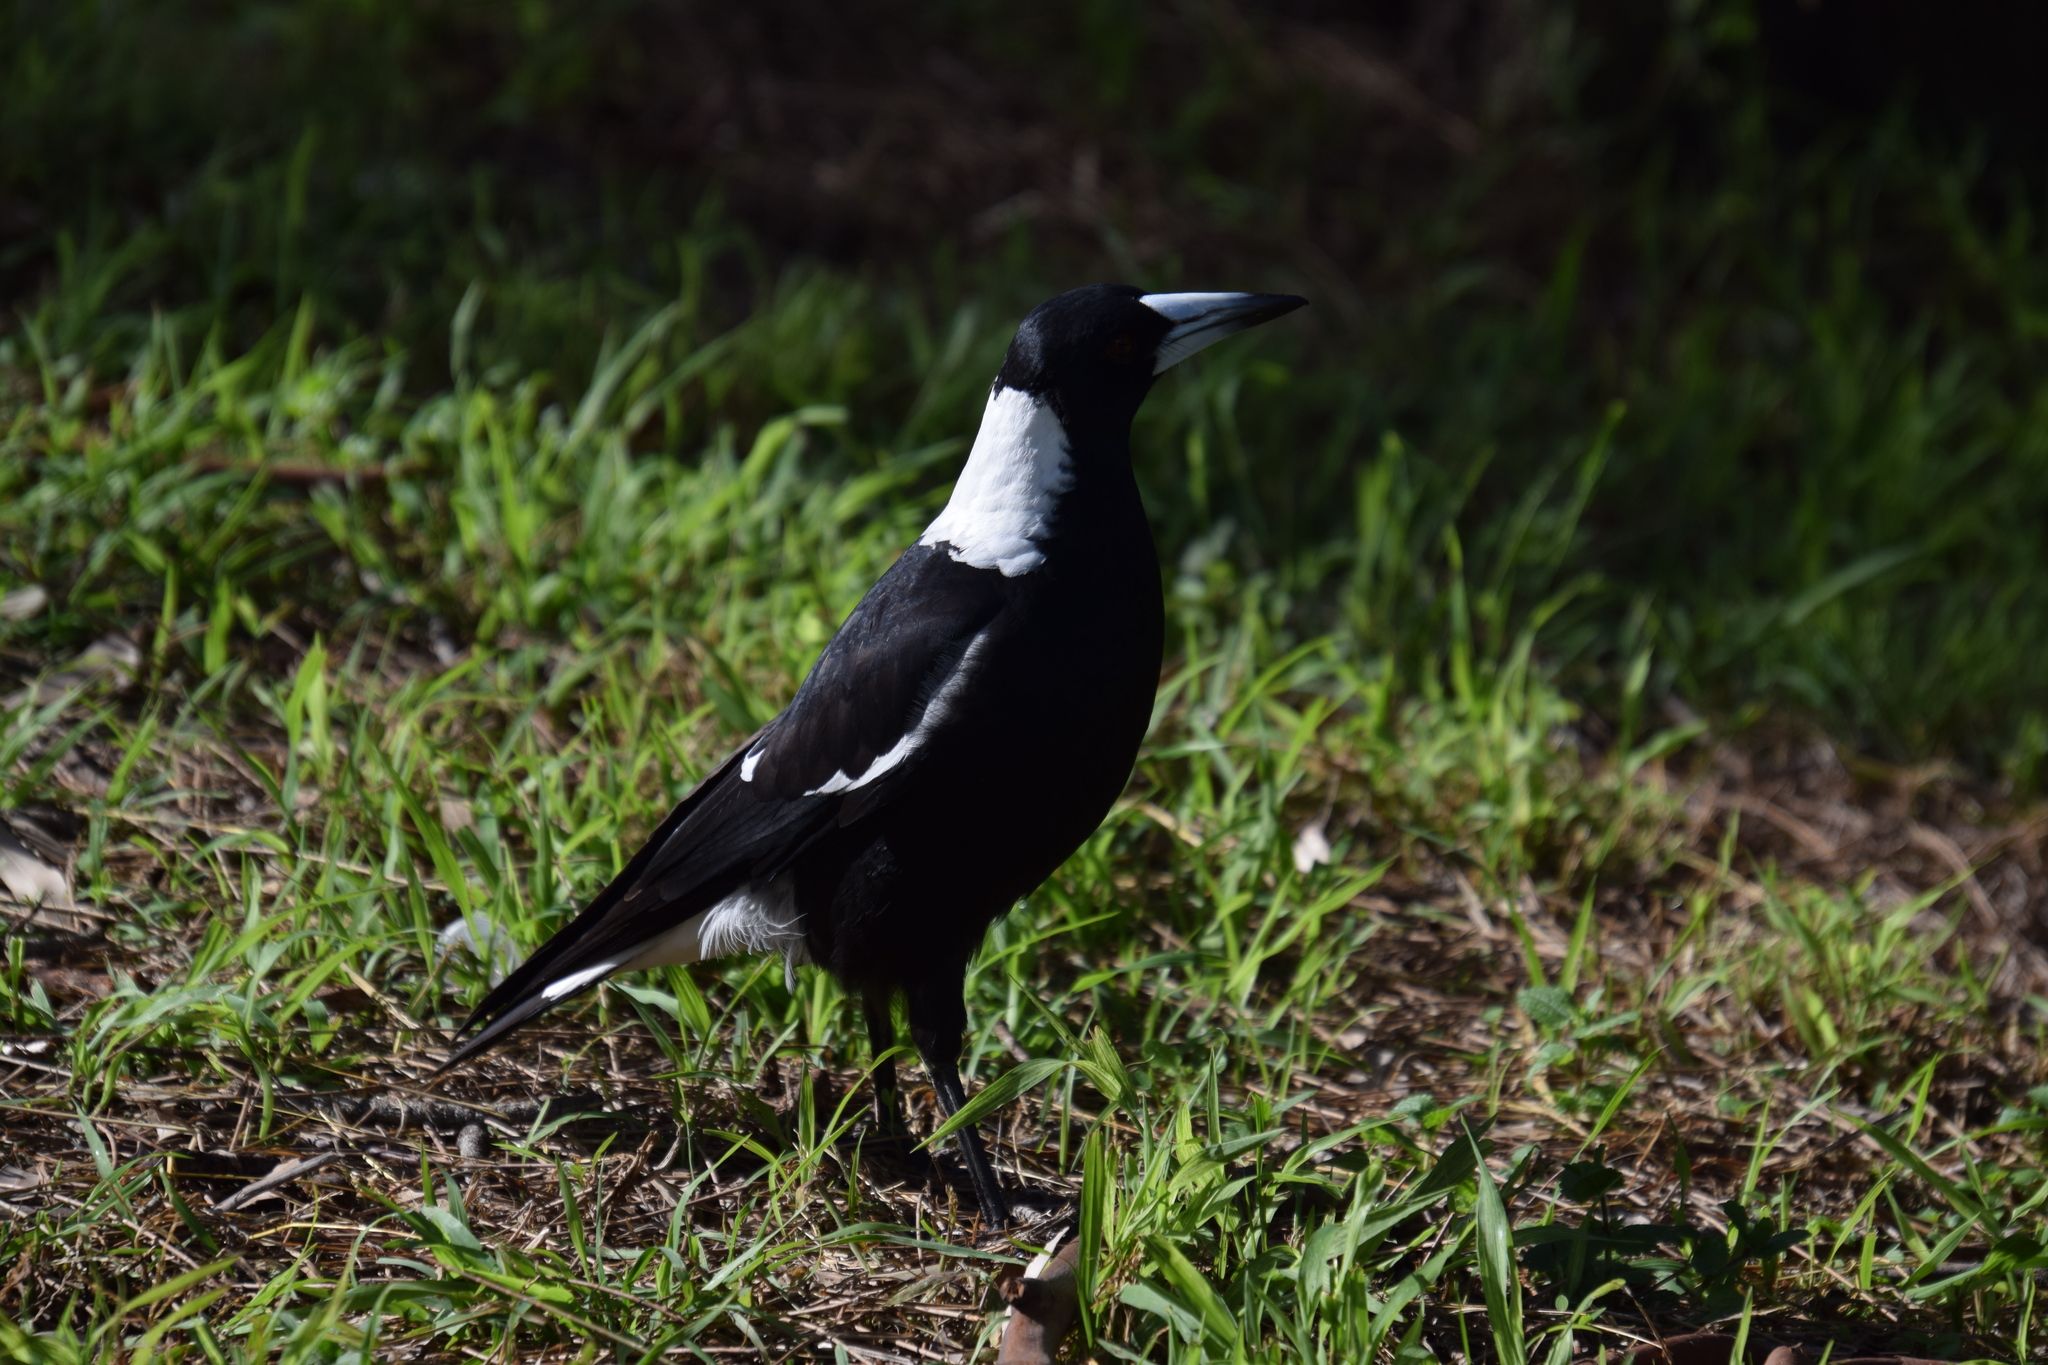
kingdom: Animalia
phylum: Chordata
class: Aves
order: Passeriformes
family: Cracticidae
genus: Gymnorhina
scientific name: Gymnorhina tibicen
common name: Australian magpie
